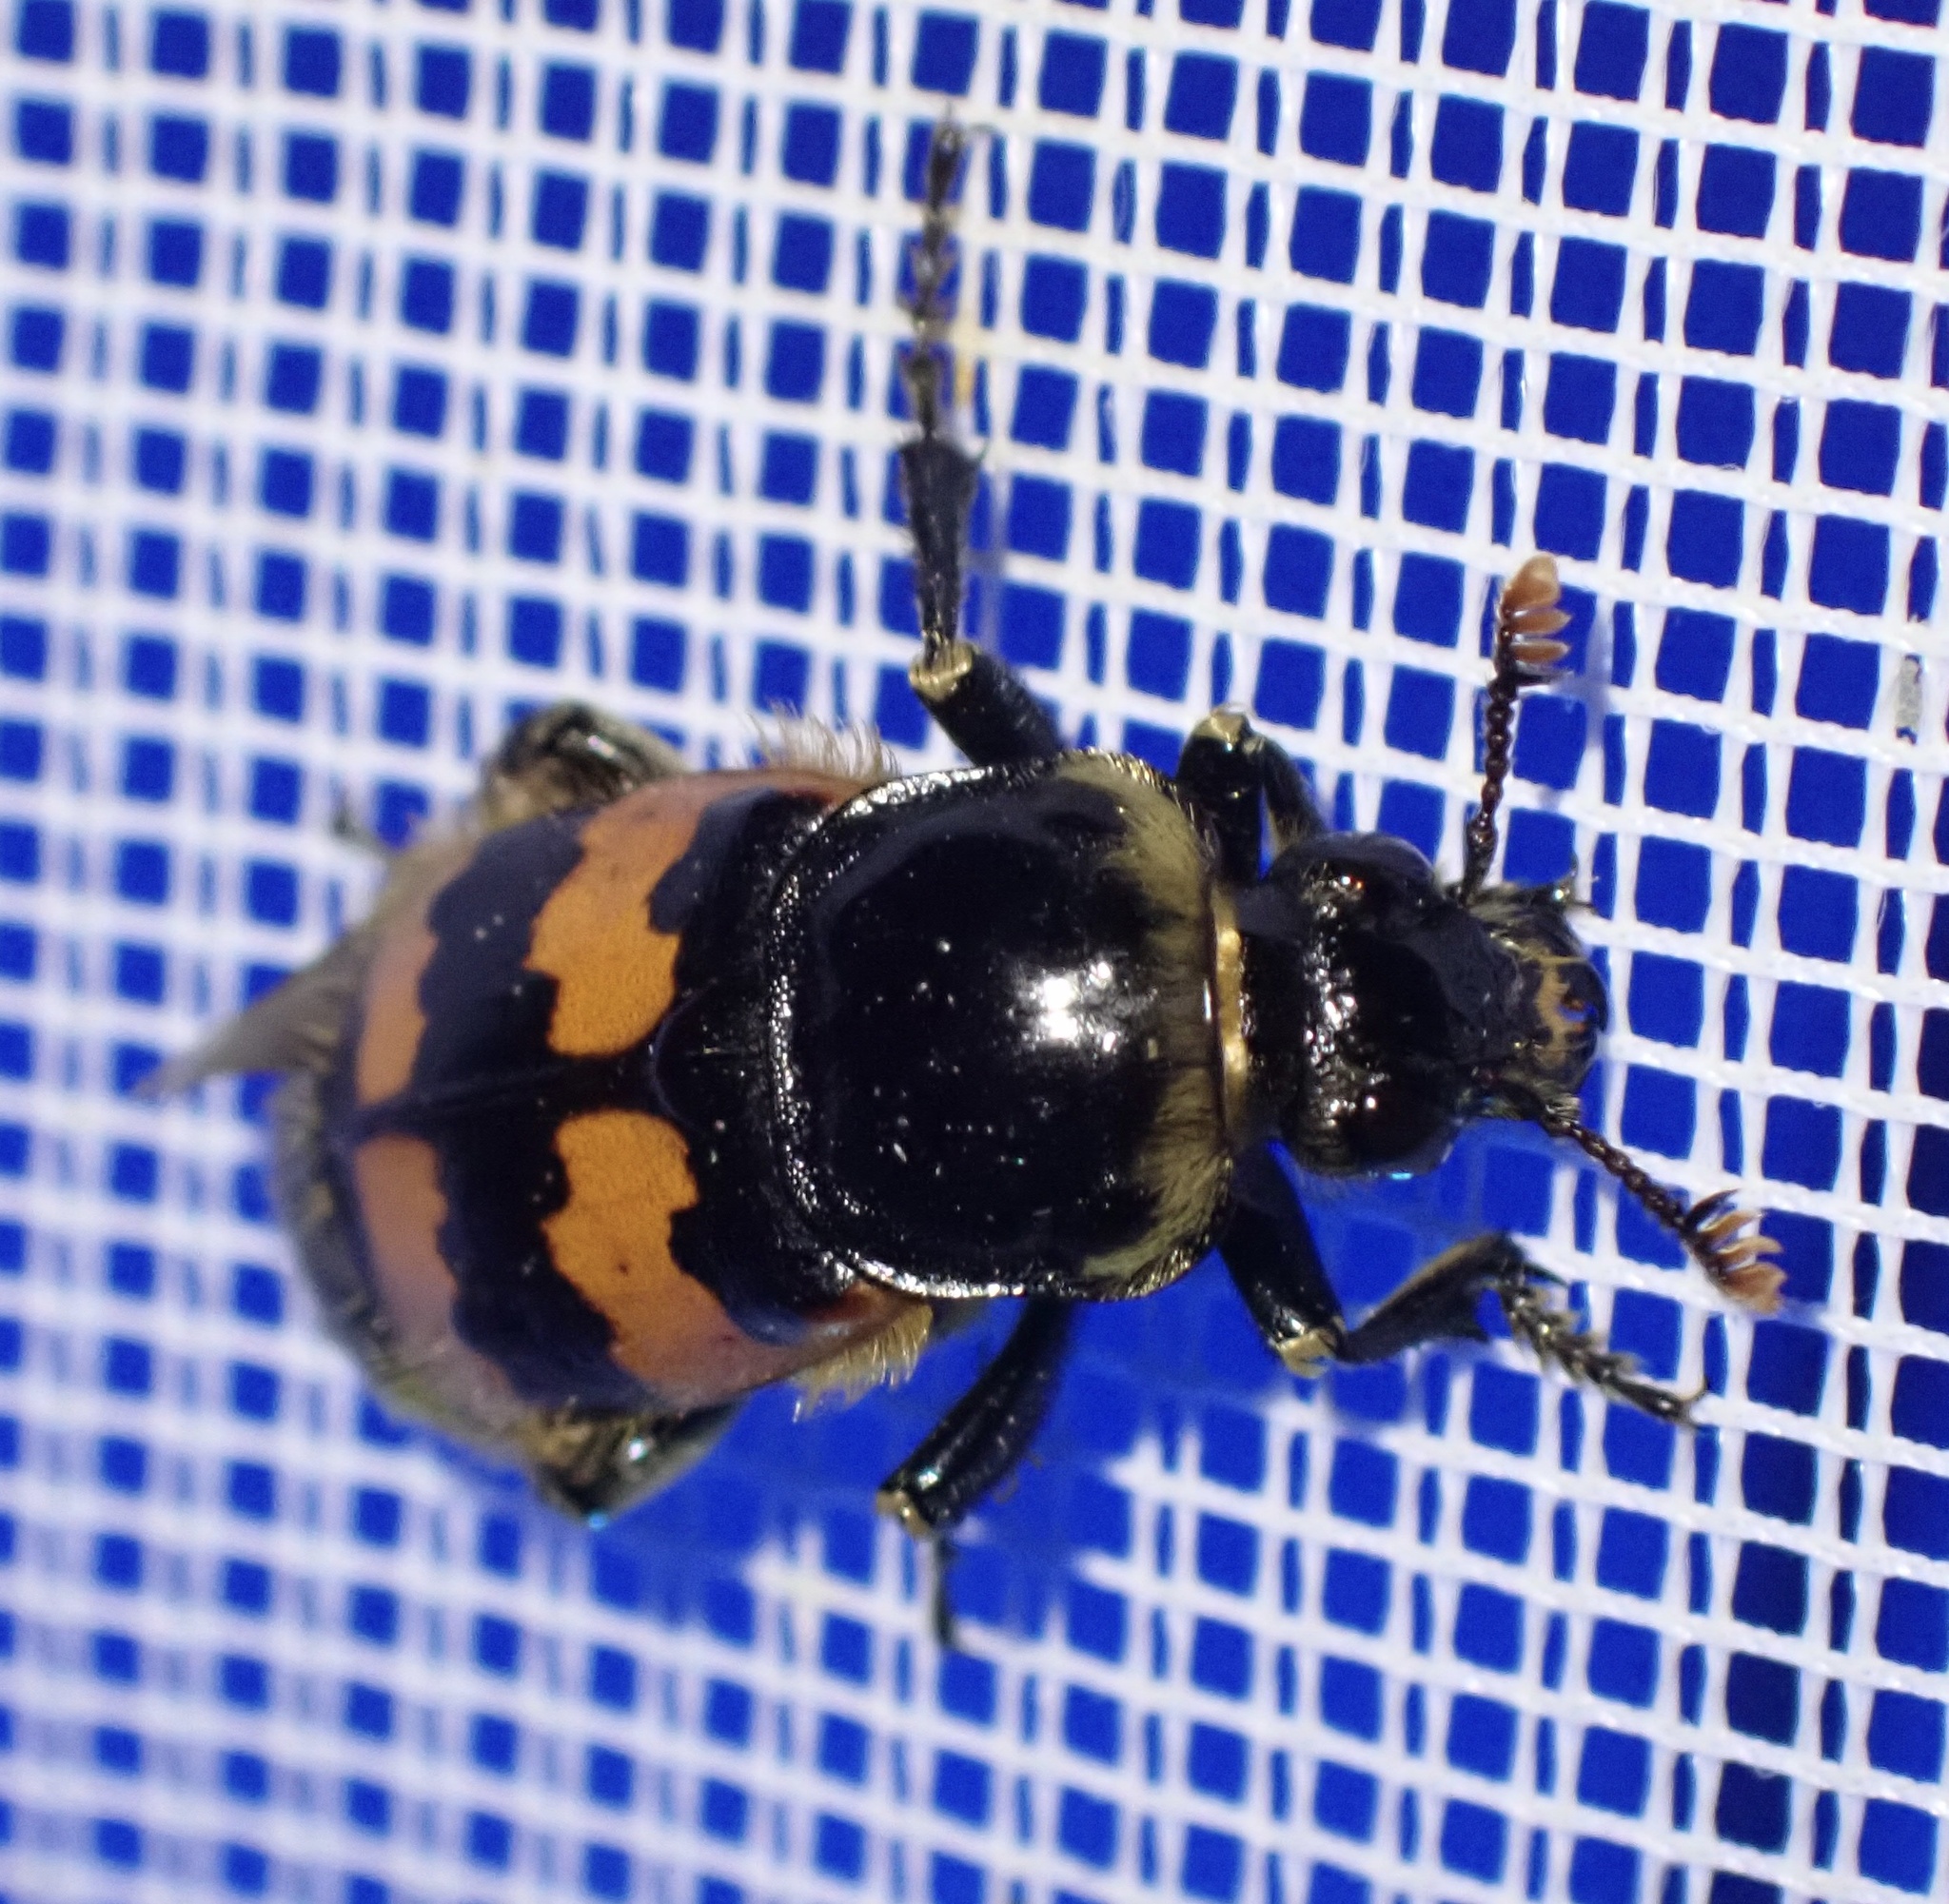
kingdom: Animalia
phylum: Arthropoda
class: Insecta
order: Coleoptera
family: Staphylinidae
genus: Nicrophorus
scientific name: Nicrophorus vespillo
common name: Common burying beetle
